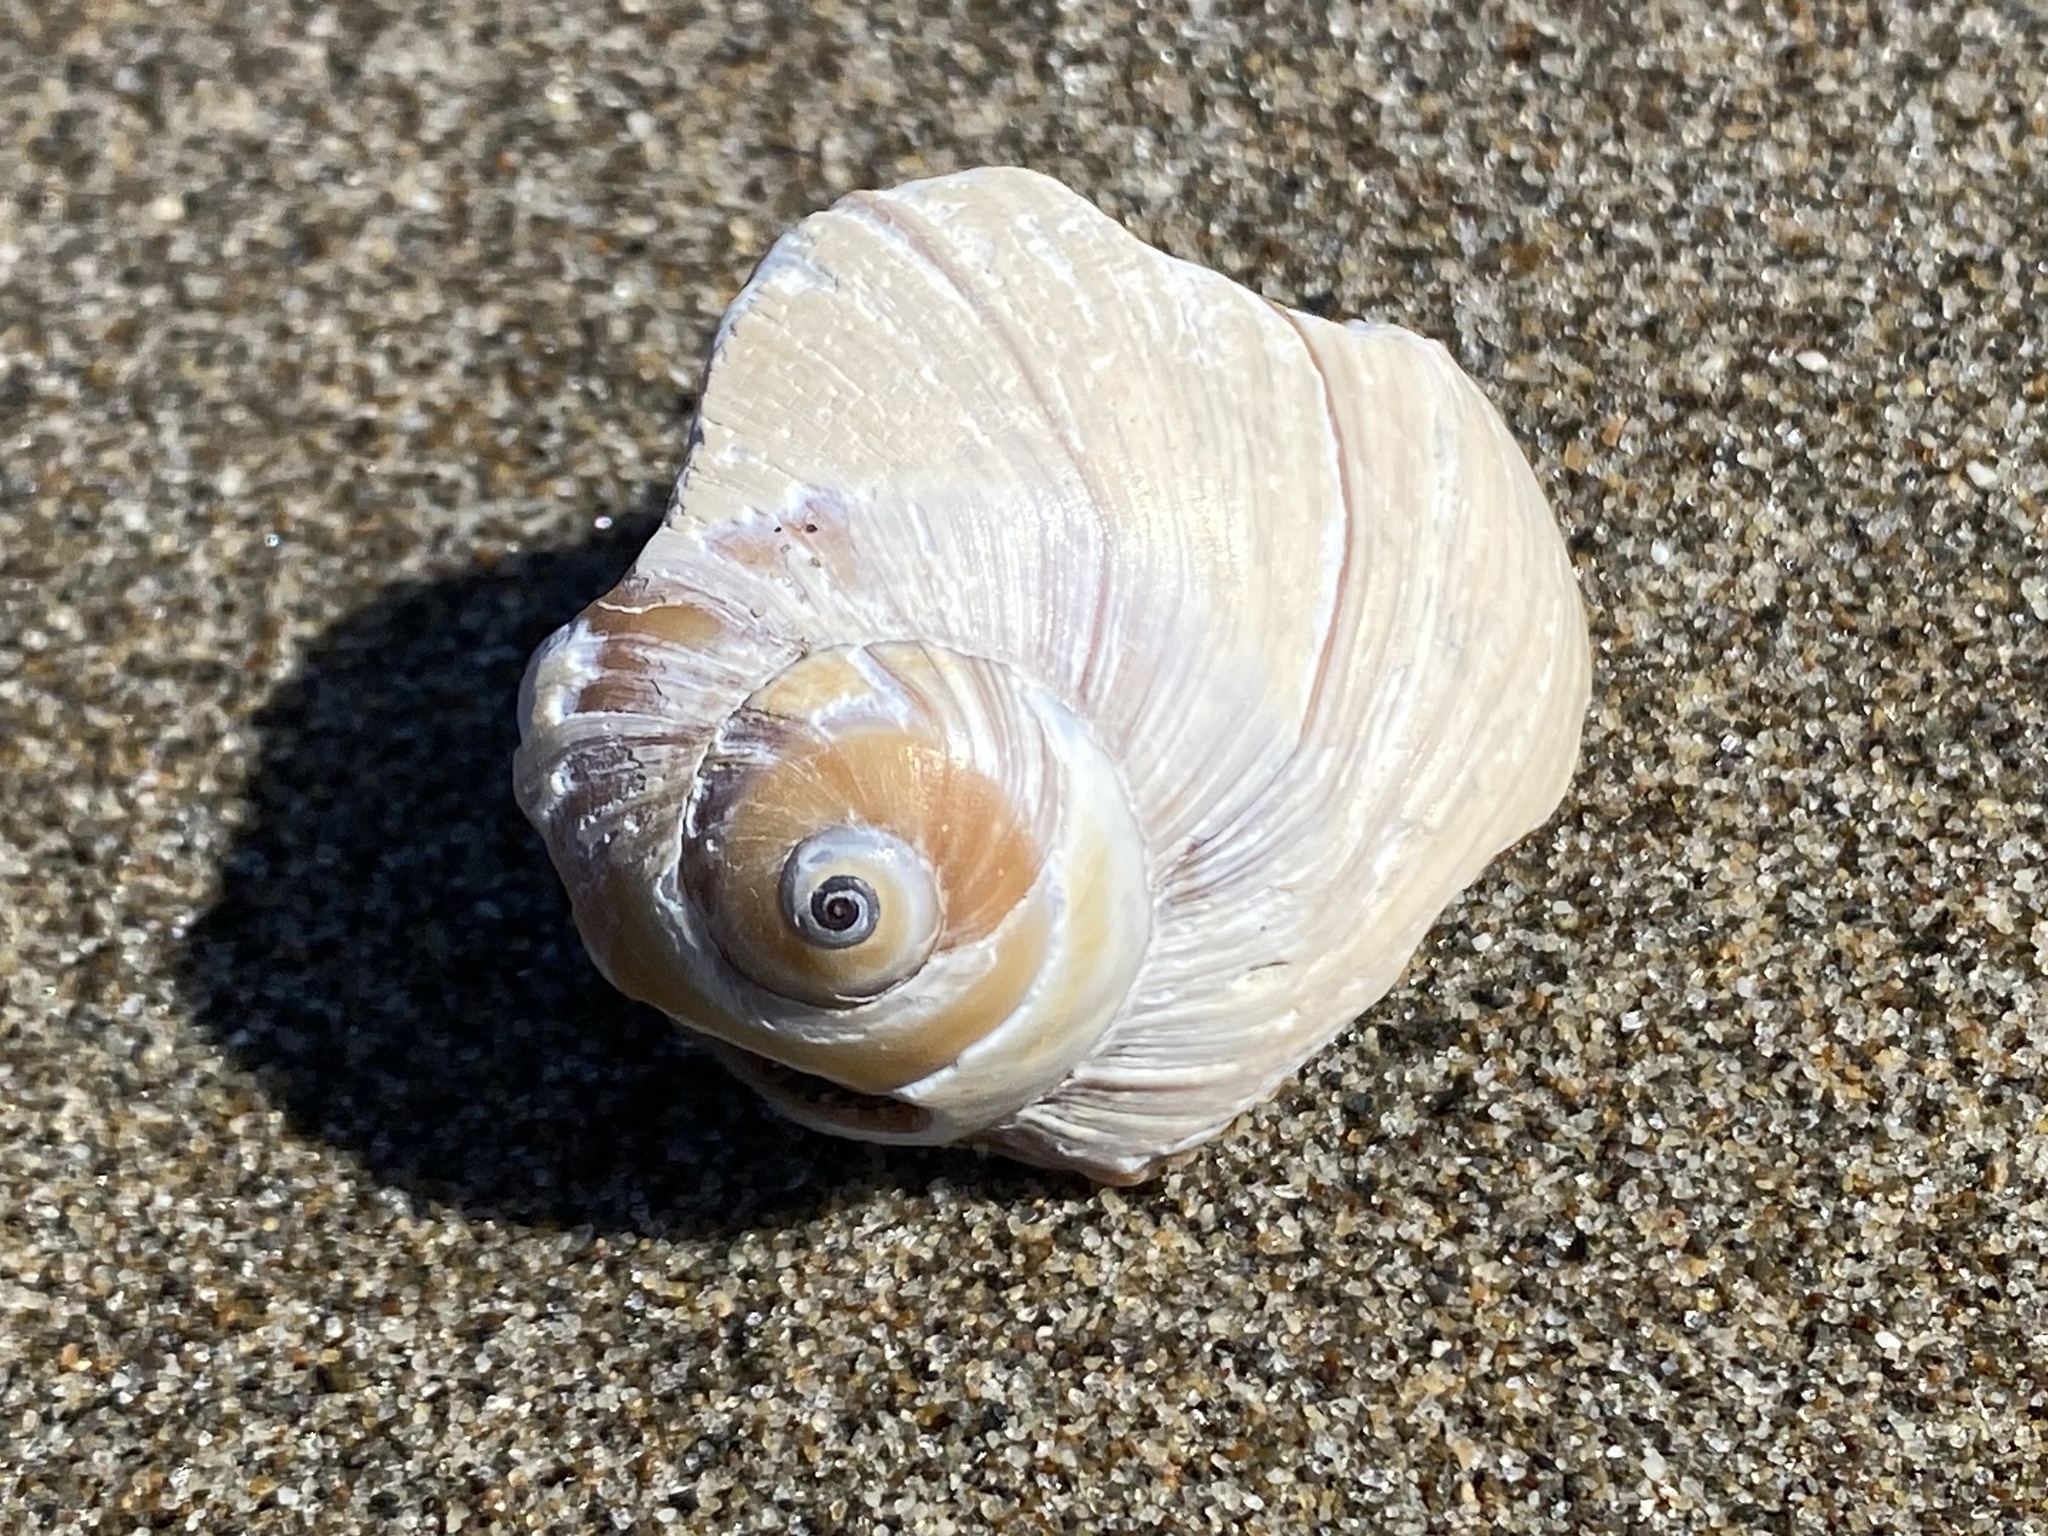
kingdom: Animalia
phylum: Mollusca
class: Gastropoda
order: Littorinimorpha
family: Naticidae
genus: Glossaulax
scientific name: Glossaulax reclusiana
